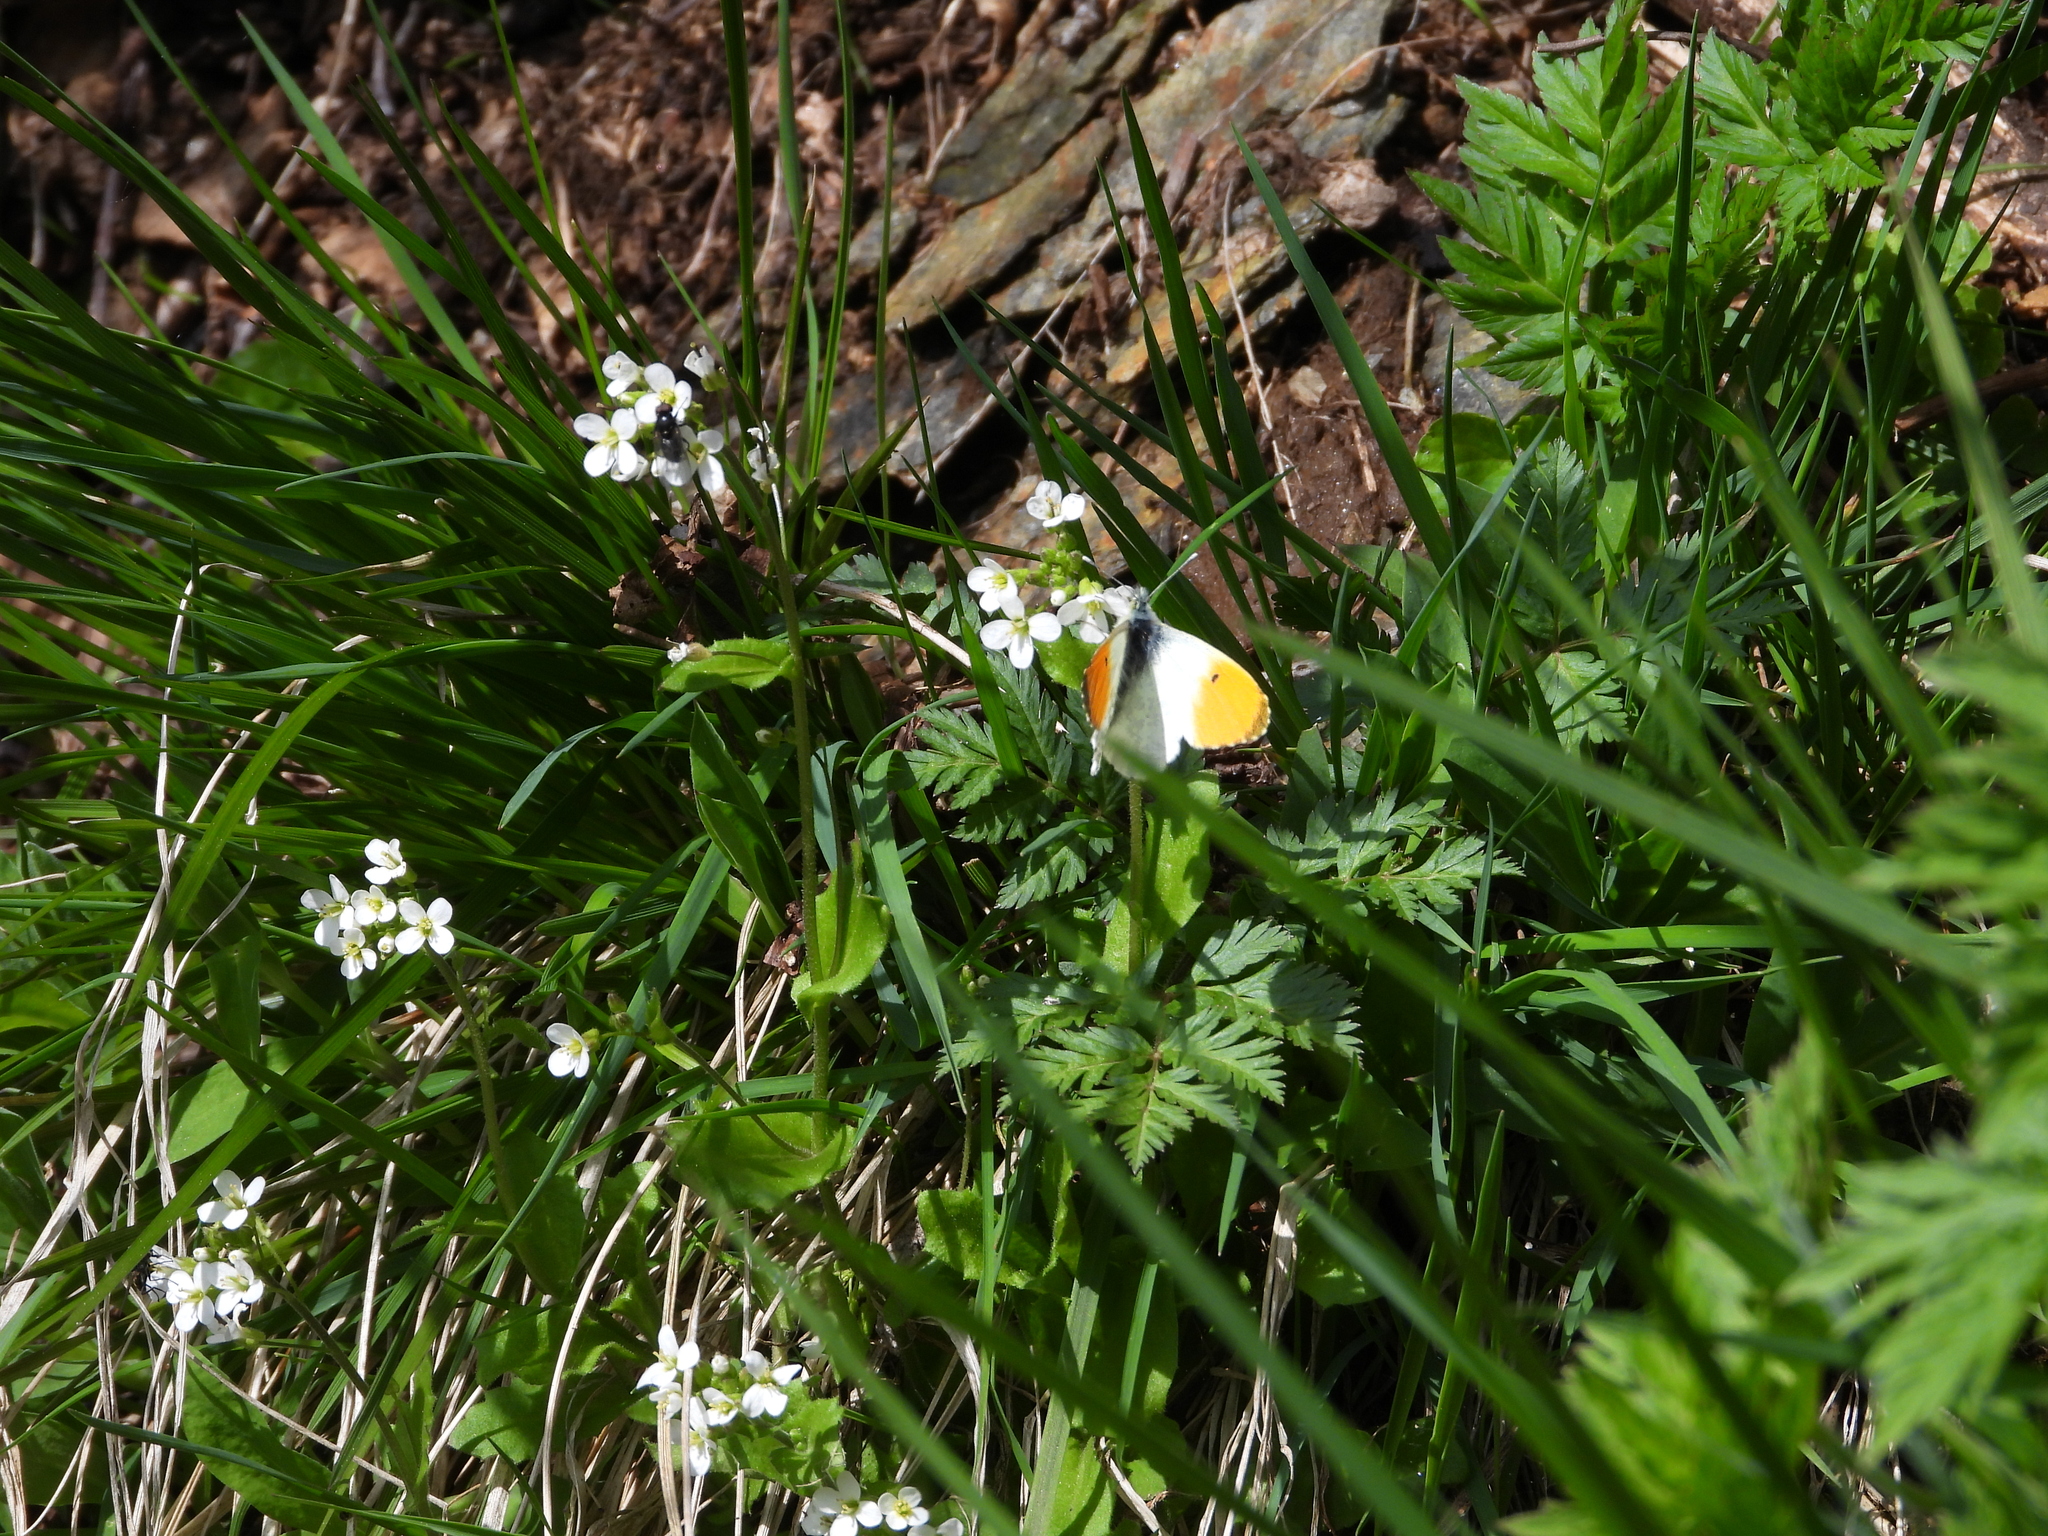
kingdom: Animalia
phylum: Arthropoda
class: Insecta
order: Lepidoptera
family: Pieridae
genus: Anthocharis
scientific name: Anthocharis cardamines
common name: Orange-tip
